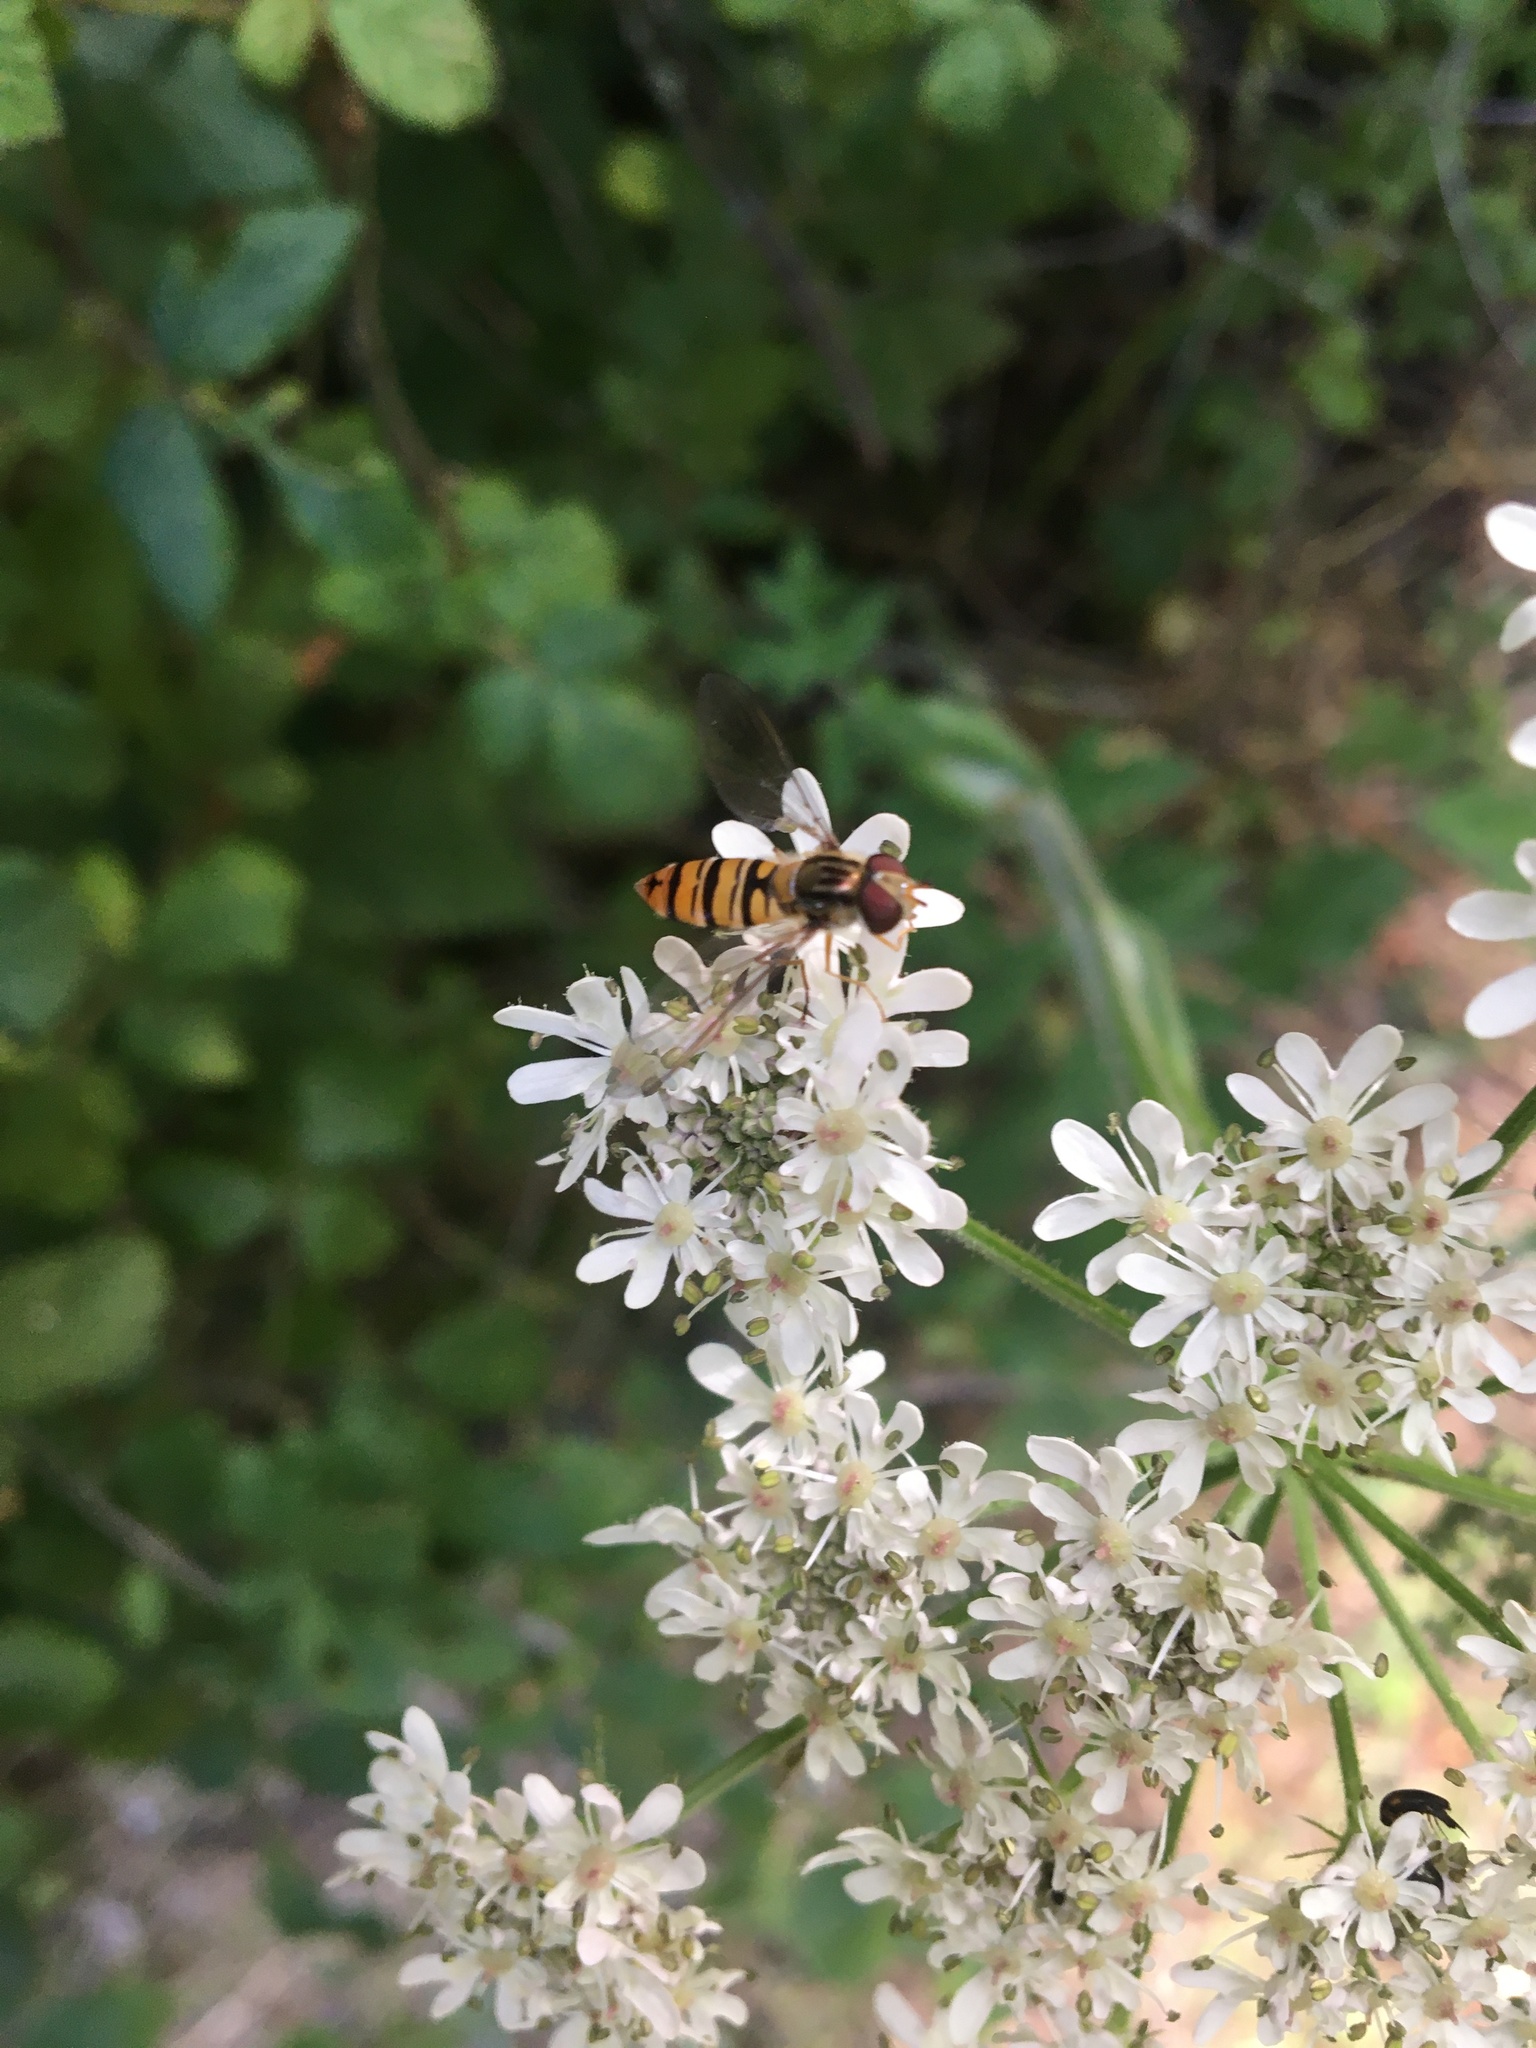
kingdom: Animalia
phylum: Arthropoda
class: Insecta
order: Diptera
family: Syrphidae
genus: Episyrphus
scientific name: Episyrphus balteatus
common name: Marmalade hoverfly
